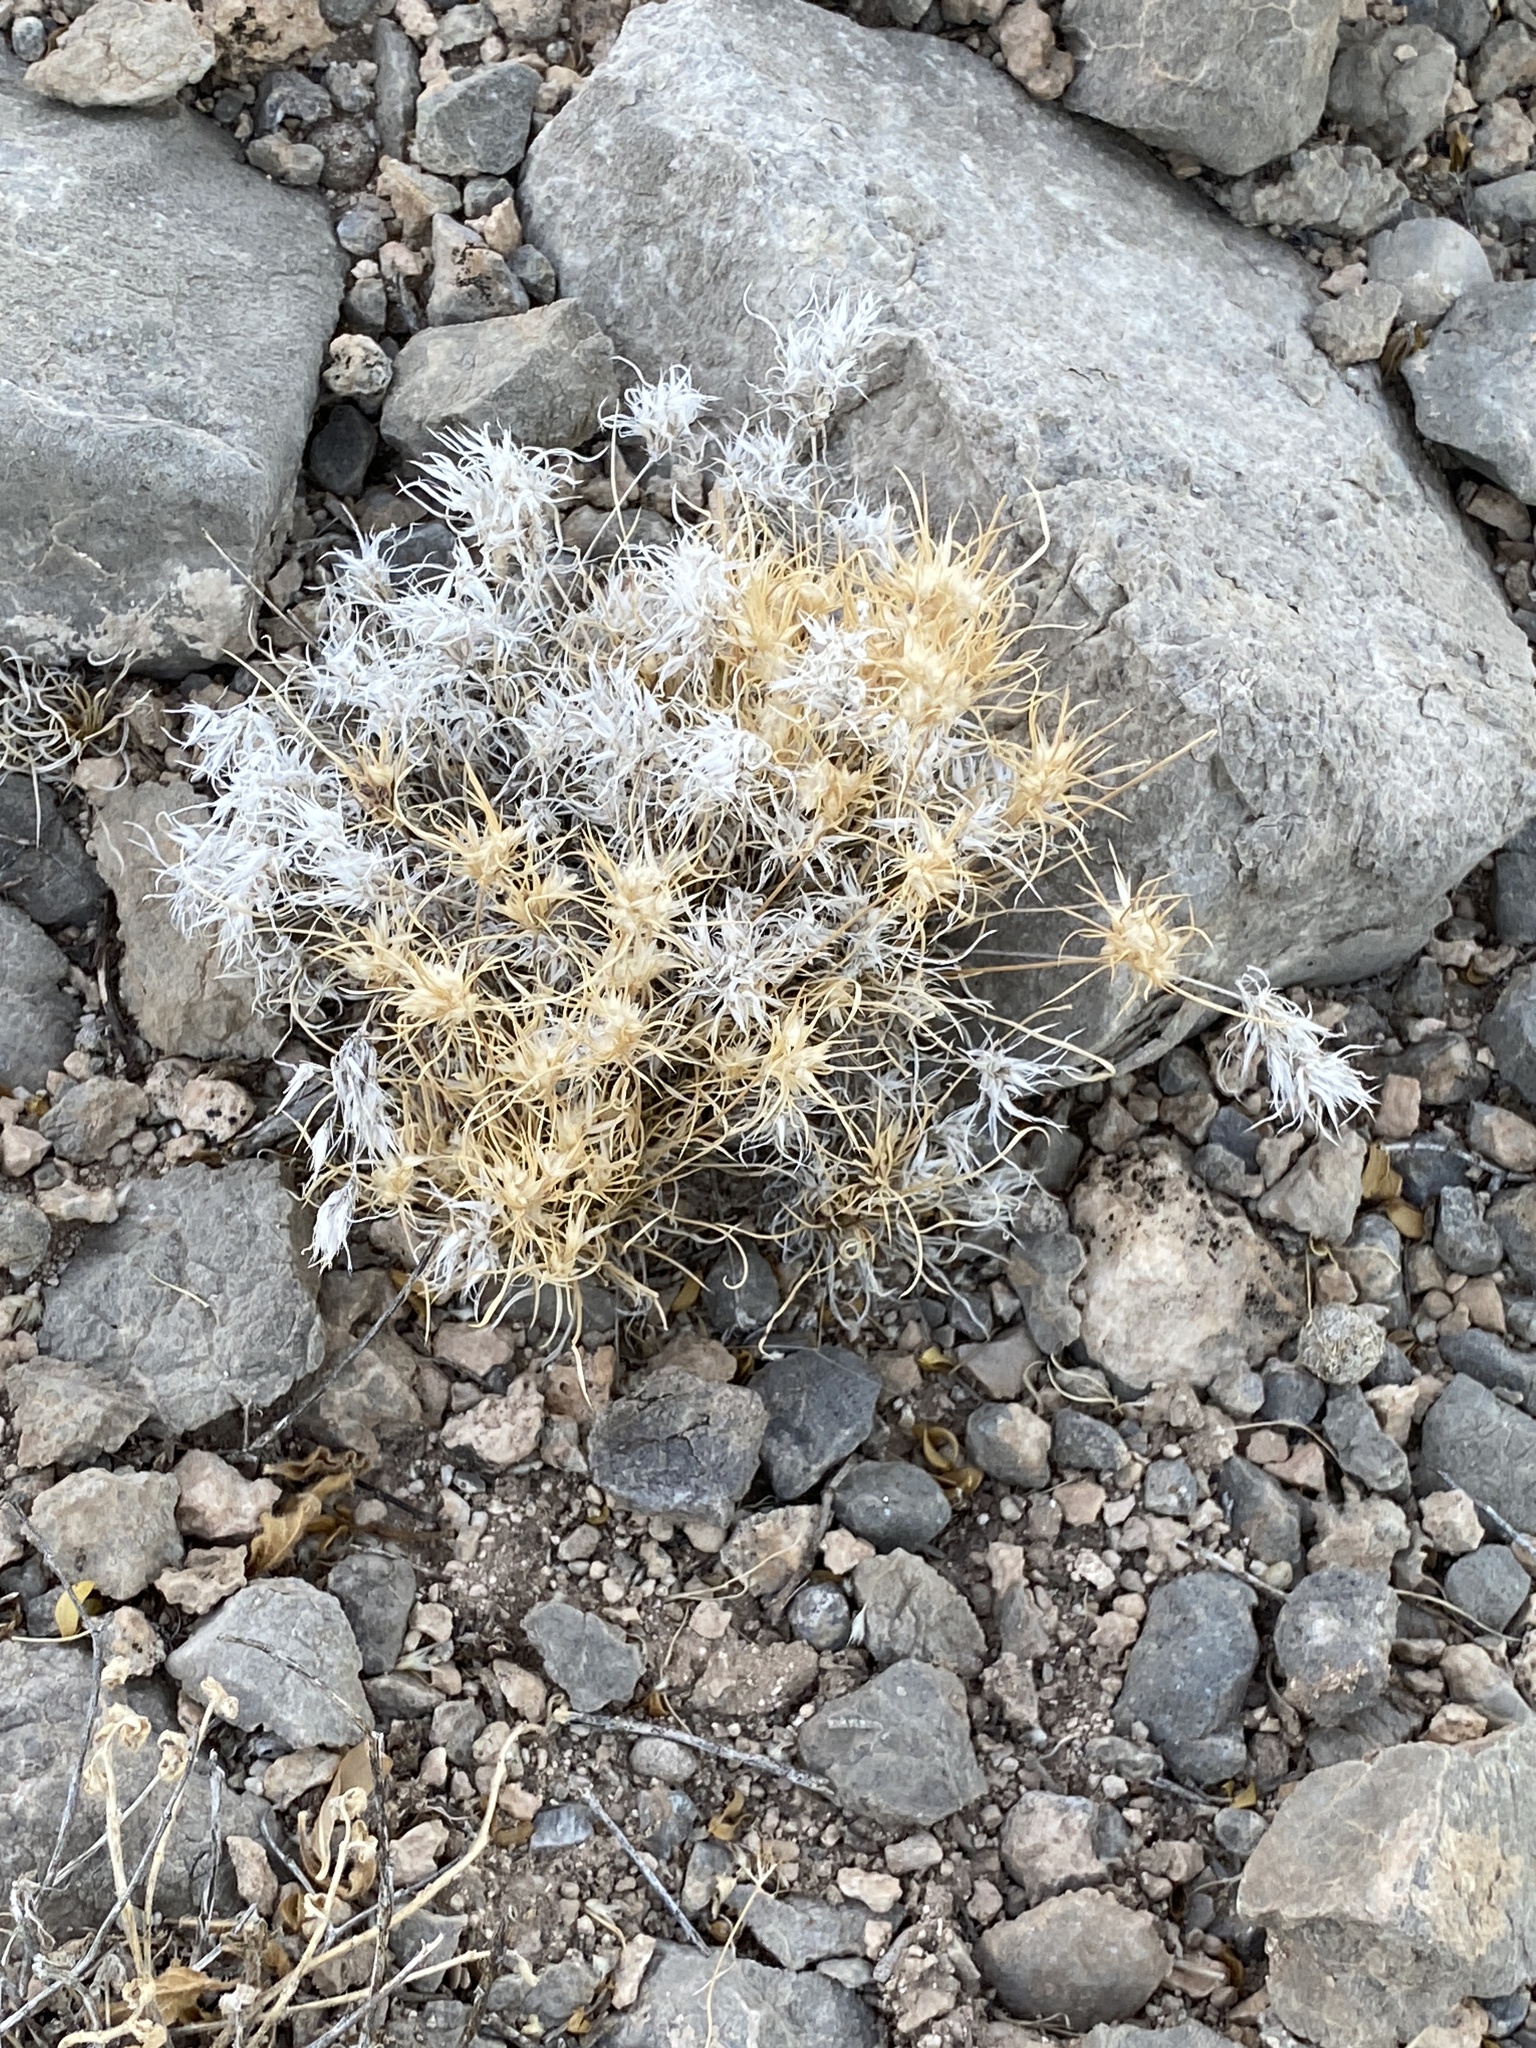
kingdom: Plantae
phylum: Tracheophyta
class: Liliopsida
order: Poales
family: Poaceae
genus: Dasyochloa
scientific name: Dasyochloa pulchella
